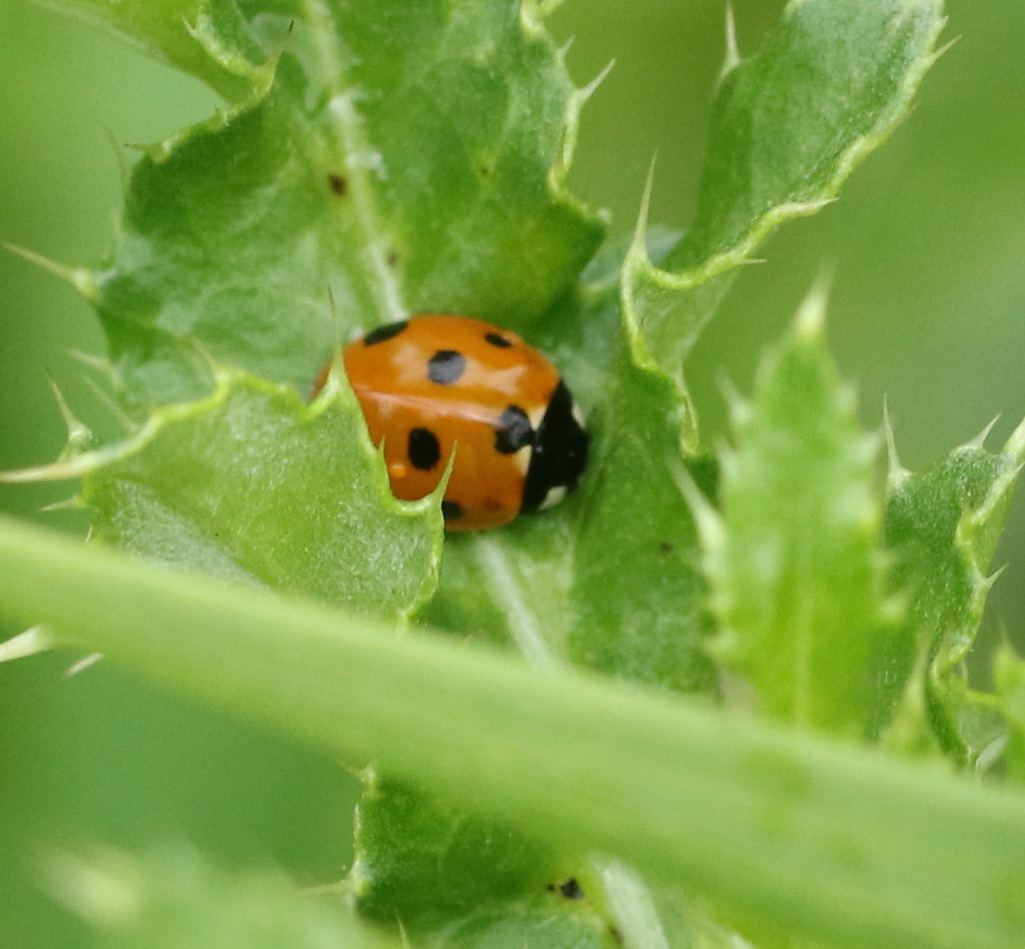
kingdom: Animalia
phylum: Arthropoda
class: Insecta
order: Coleoptera
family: Coccinellidae
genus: Coccinella
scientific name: Coccinella septempunctata
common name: Sevenspotted lady beetle
